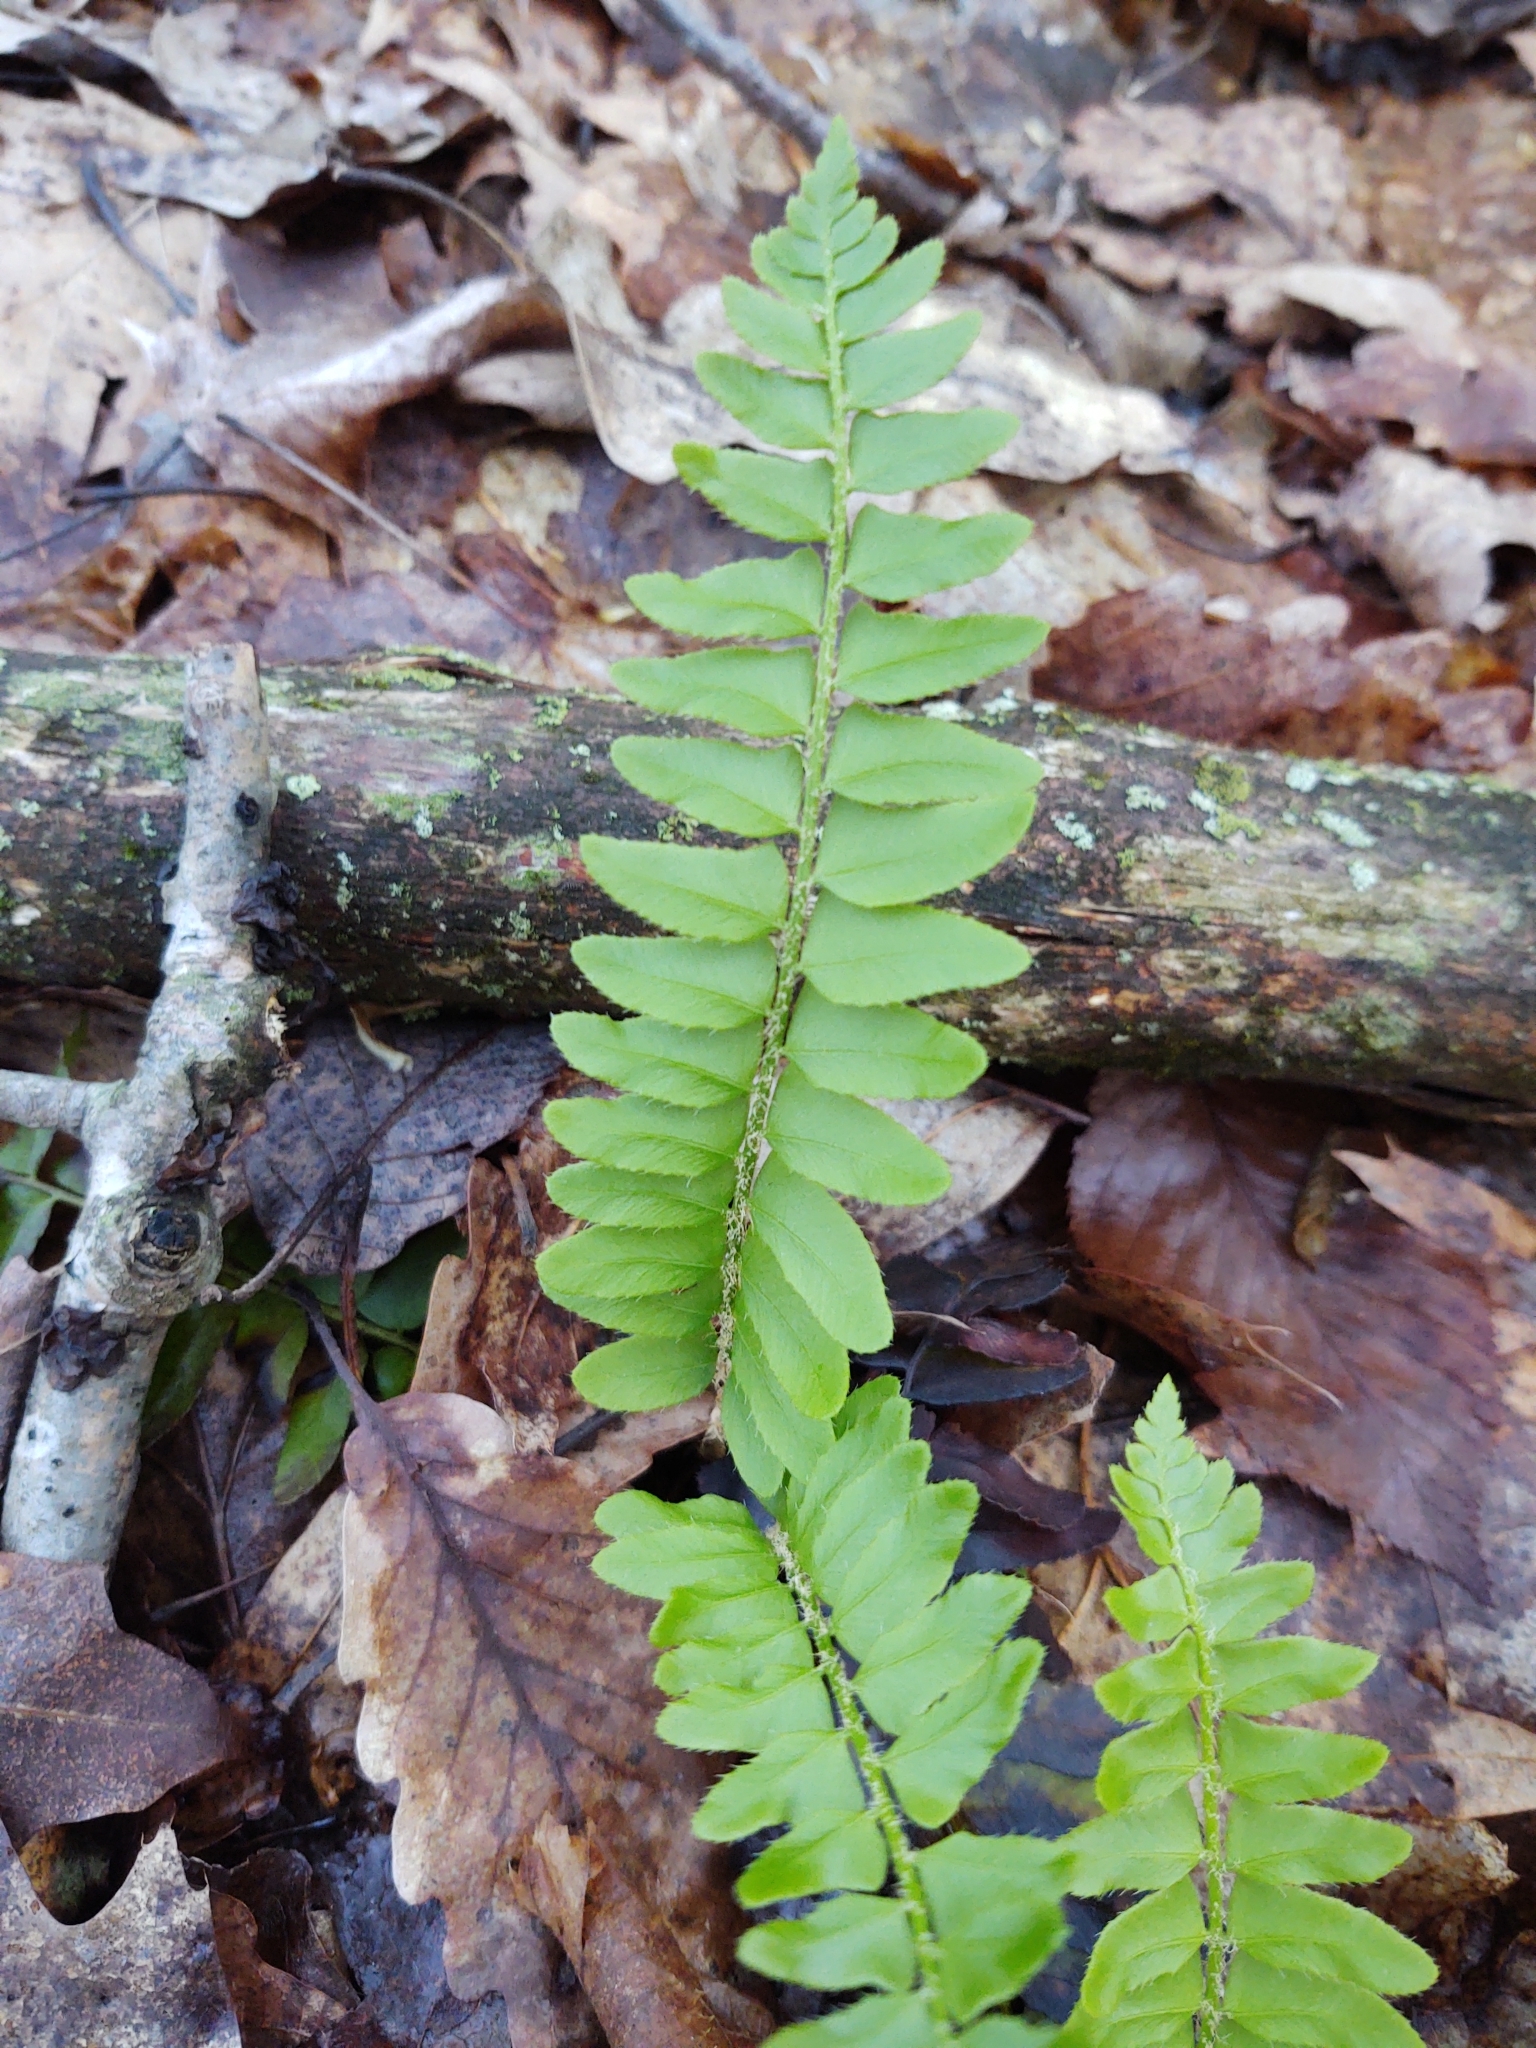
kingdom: Plantae
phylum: Tracheophyta
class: Polypodiopsida
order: Polypodiales
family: Dryopteridaceae
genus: Polystichum
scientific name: Polystichum acrostichoides
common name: Christmas fern
